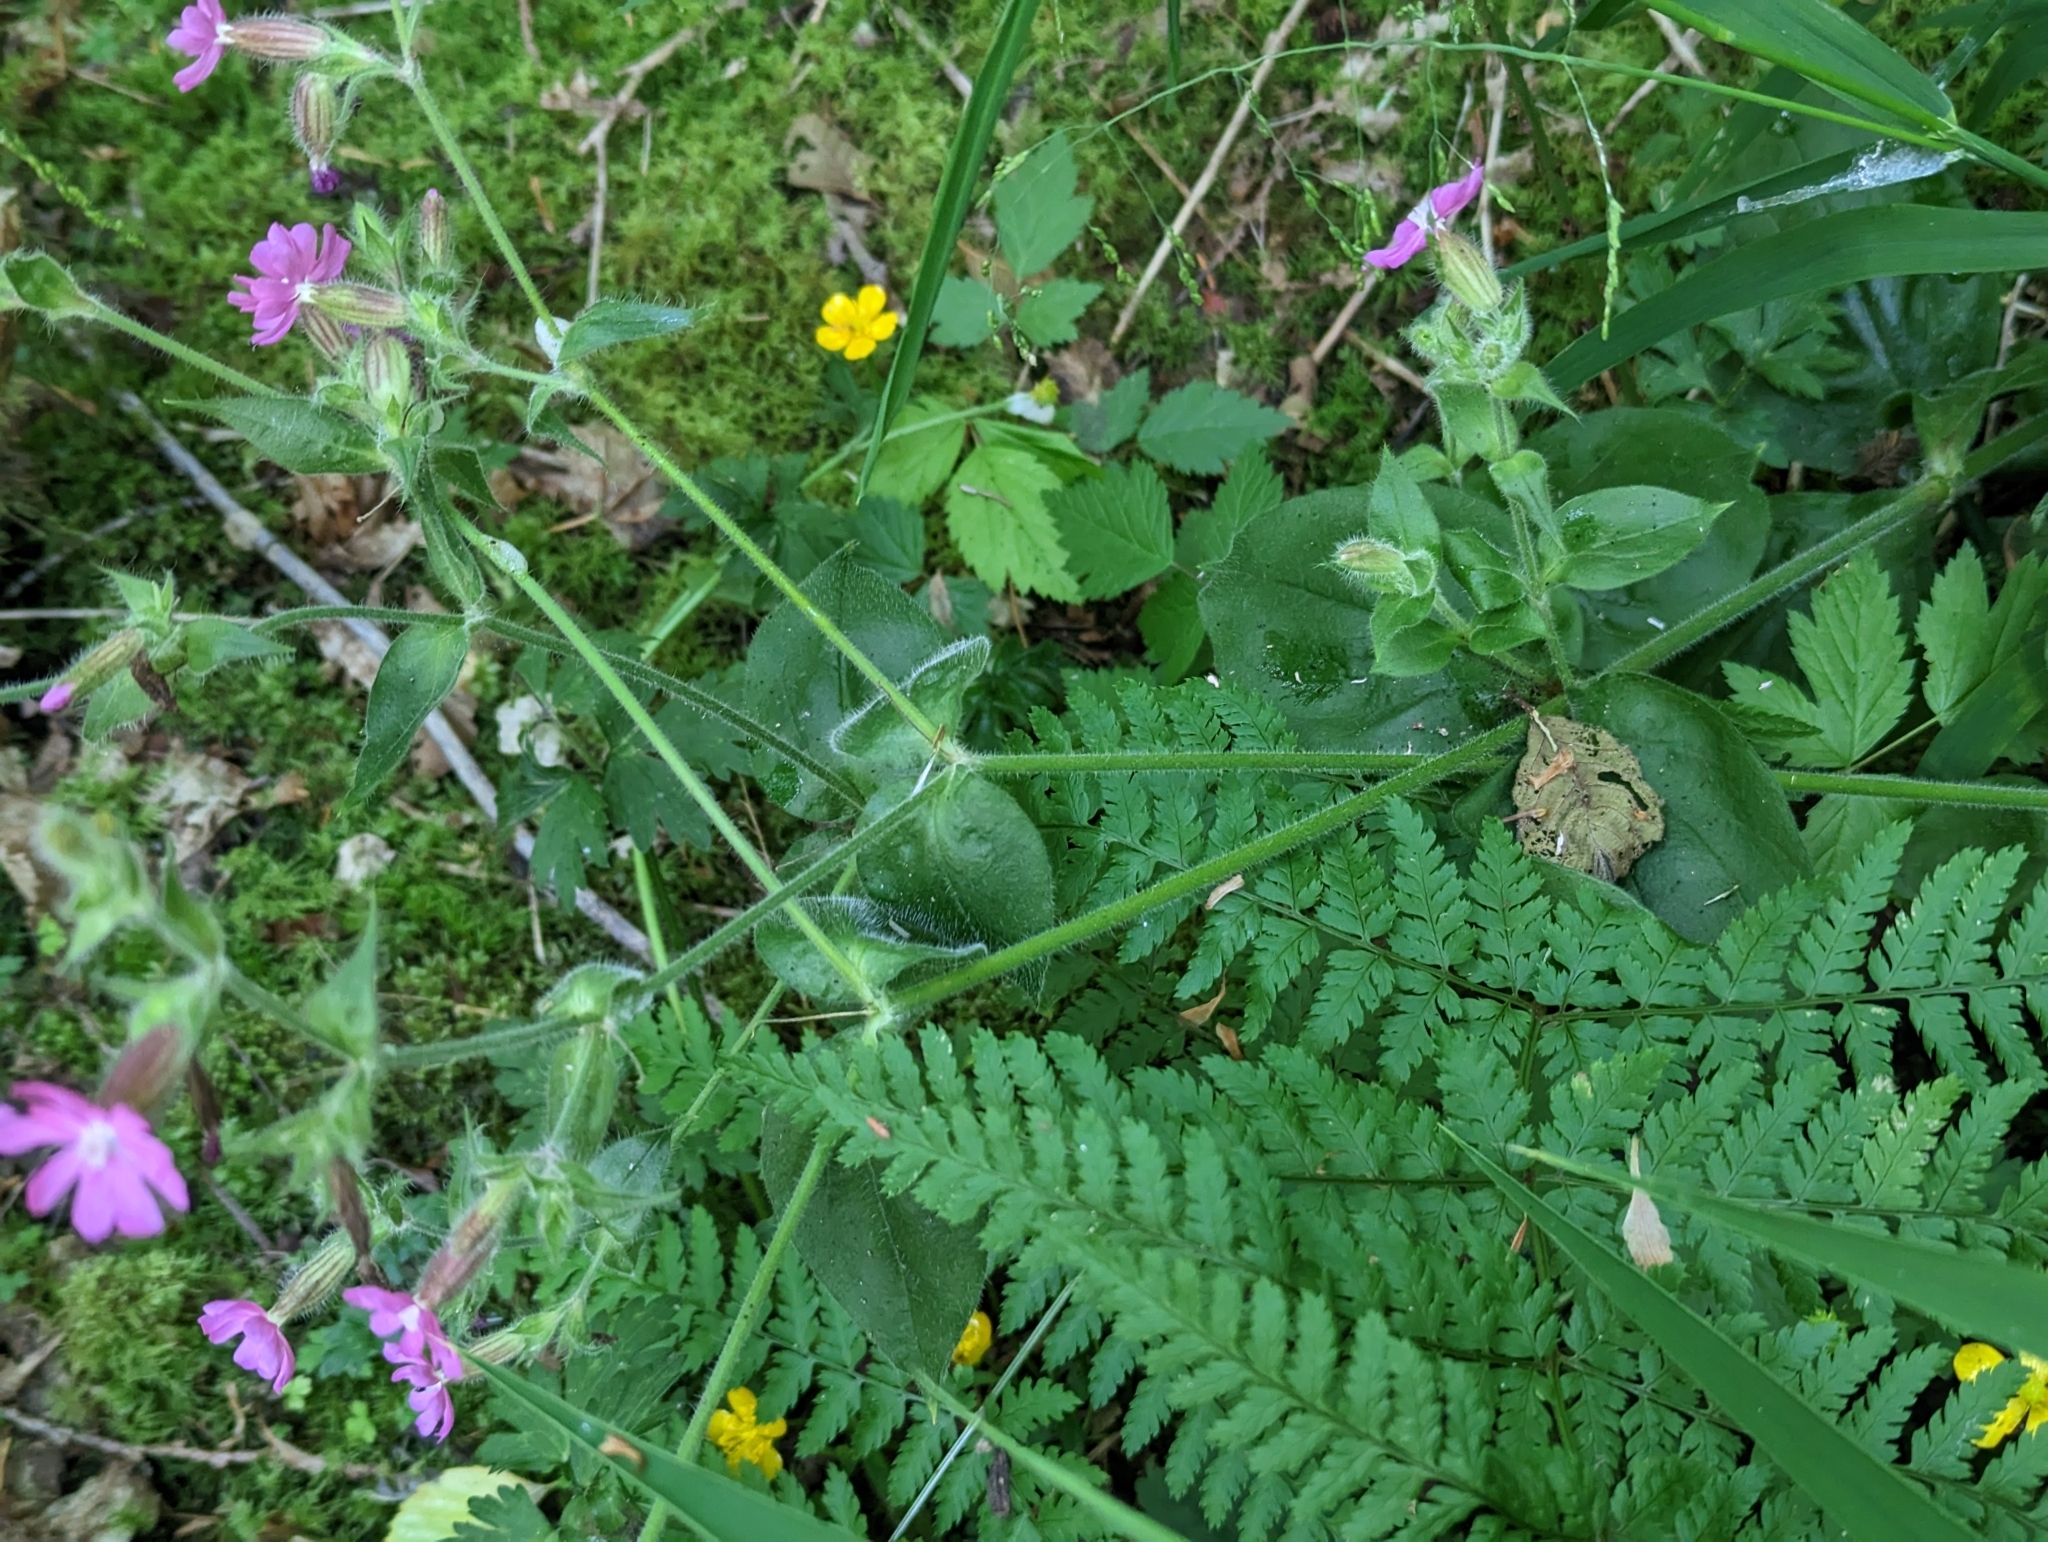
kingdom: Plantae
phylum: Tracheophyta
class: Magnoliopsida
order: Caryophyllales
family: Caryophyllaceae
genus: Silene
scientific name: Silene dioica
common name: Red campion
